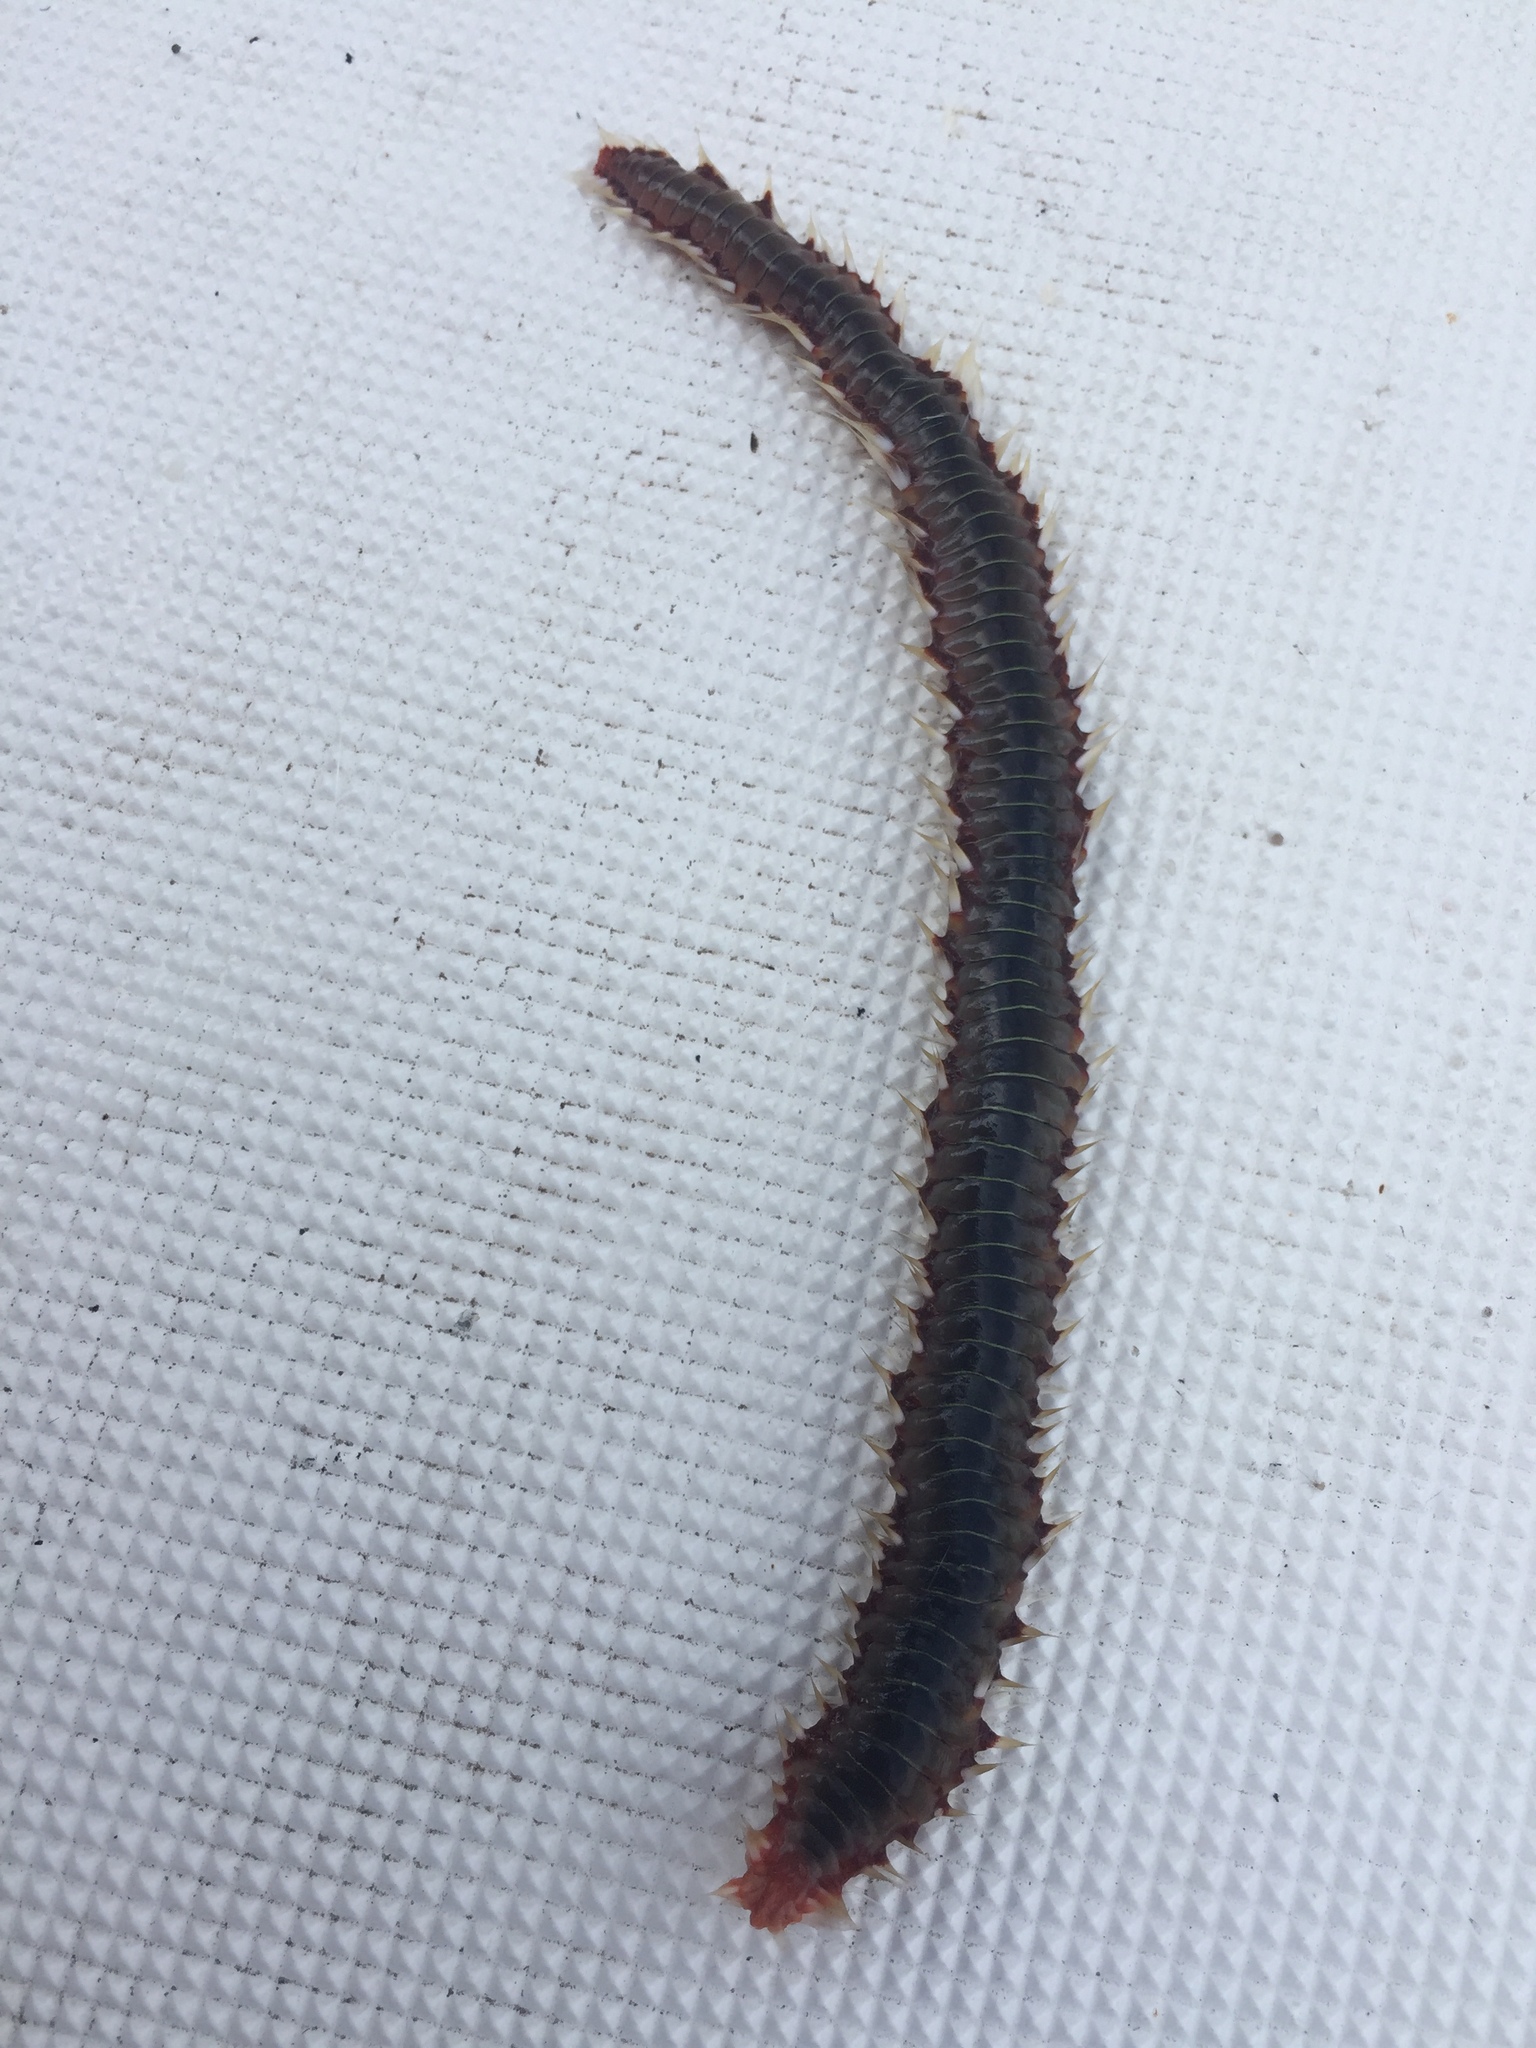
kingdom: Animalia
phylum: Annelida
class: Polychaeta
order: Amphinomida
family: Amphinomidae
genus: Hermodice
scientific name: Hermodice carunculata
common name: Bearded fireworm
